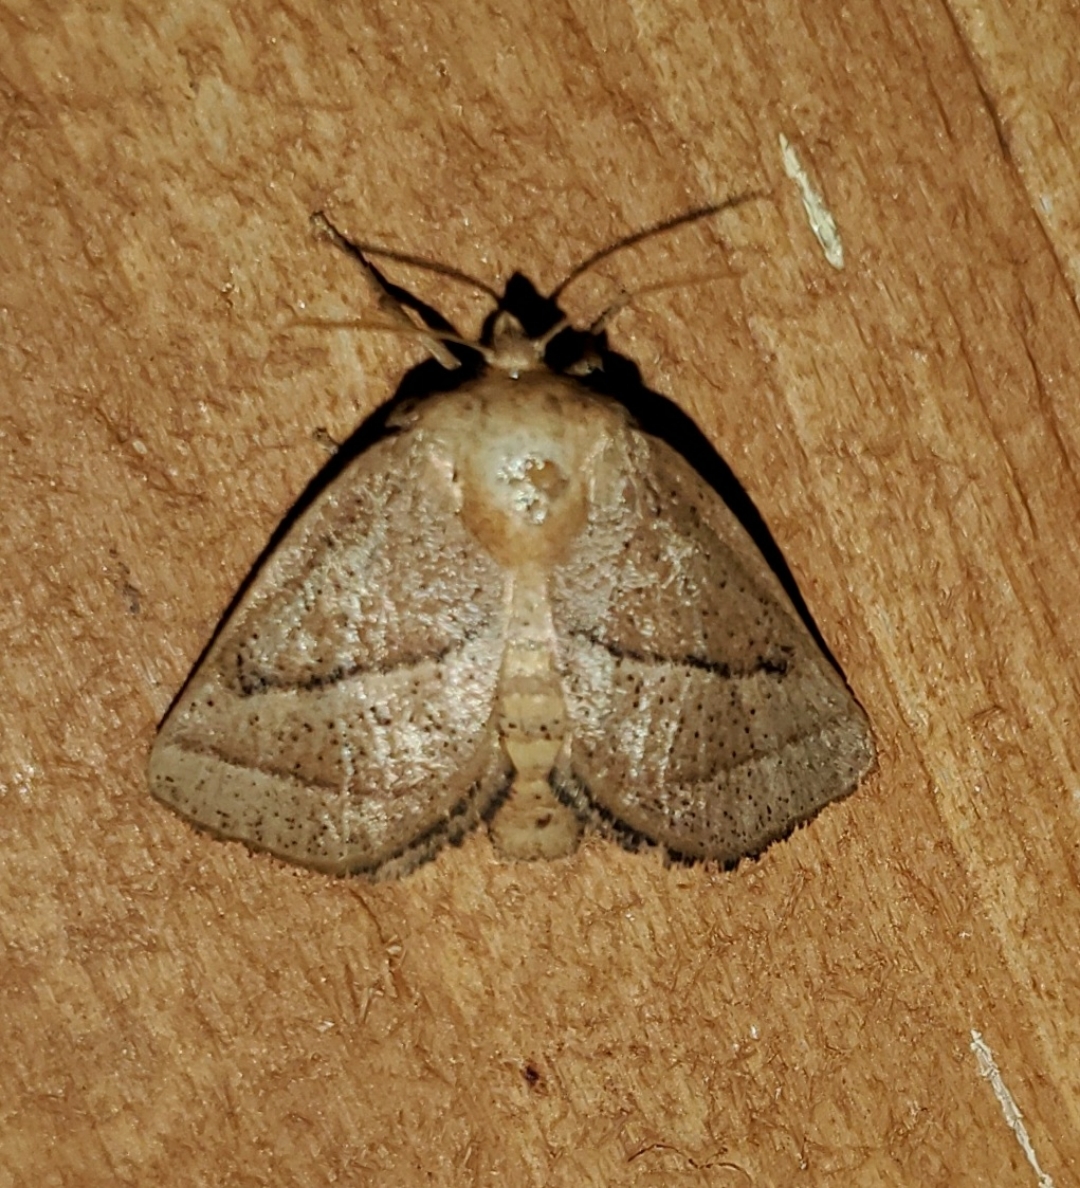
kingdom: Animalia
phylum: Arthropoda
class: Insecta
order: Lepidoptera
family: Limacodidae
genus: Natada
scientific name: Natada nasoni
